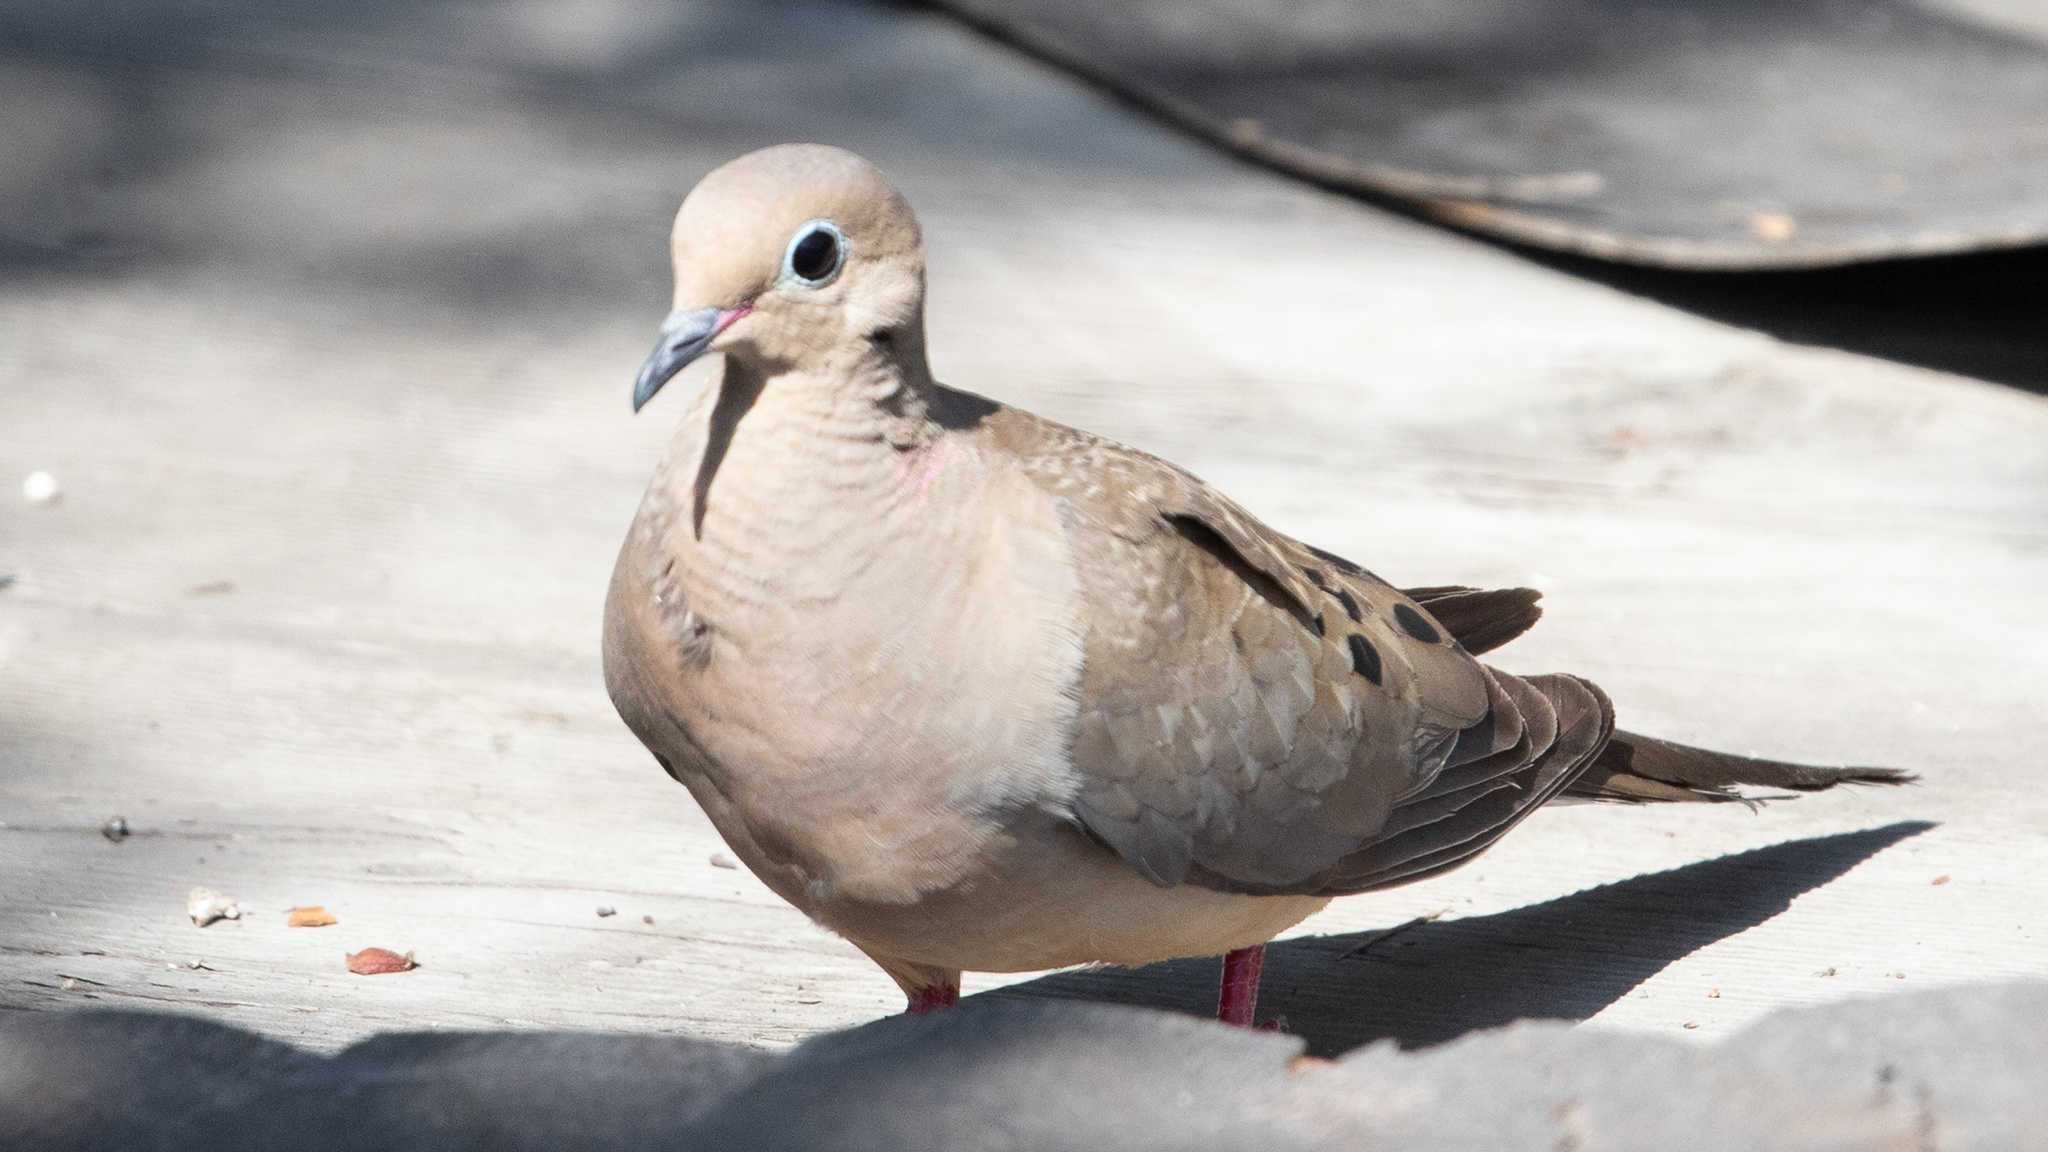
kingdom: Animalia
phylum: Chordata
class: Aves
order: Columbiformes
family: Columbidae
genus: Zenaida
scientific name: Zenaida macroura
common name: Mourning dove
